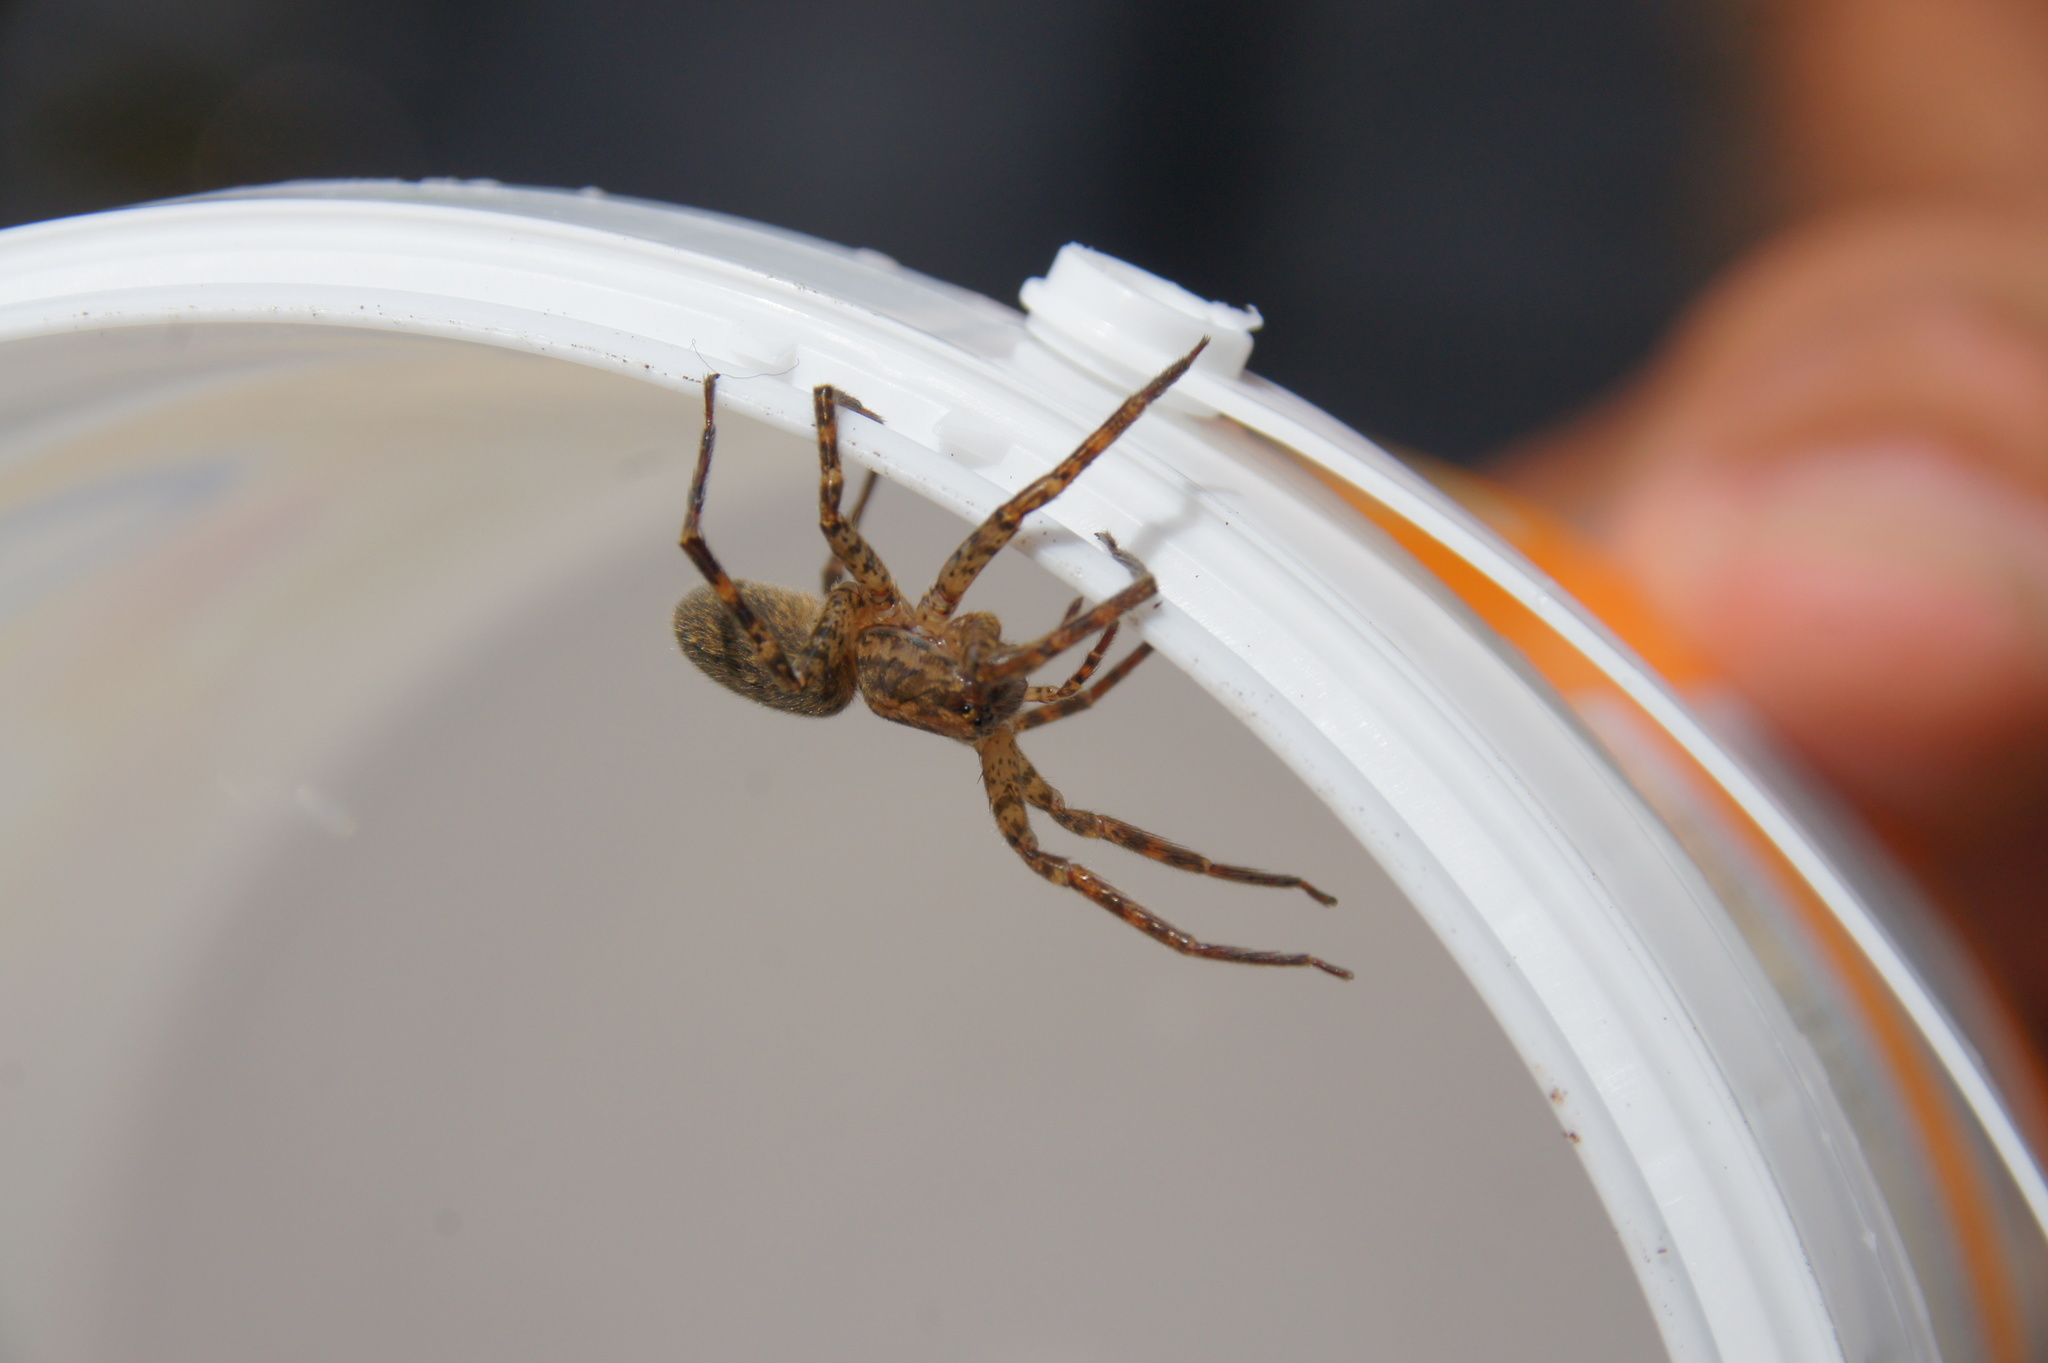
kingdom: Animalia
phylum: Arthropoda
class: Arachnida
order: Araneae
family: Zoropsidae
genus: Zoropsis
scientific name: Zoropsis rufipes
